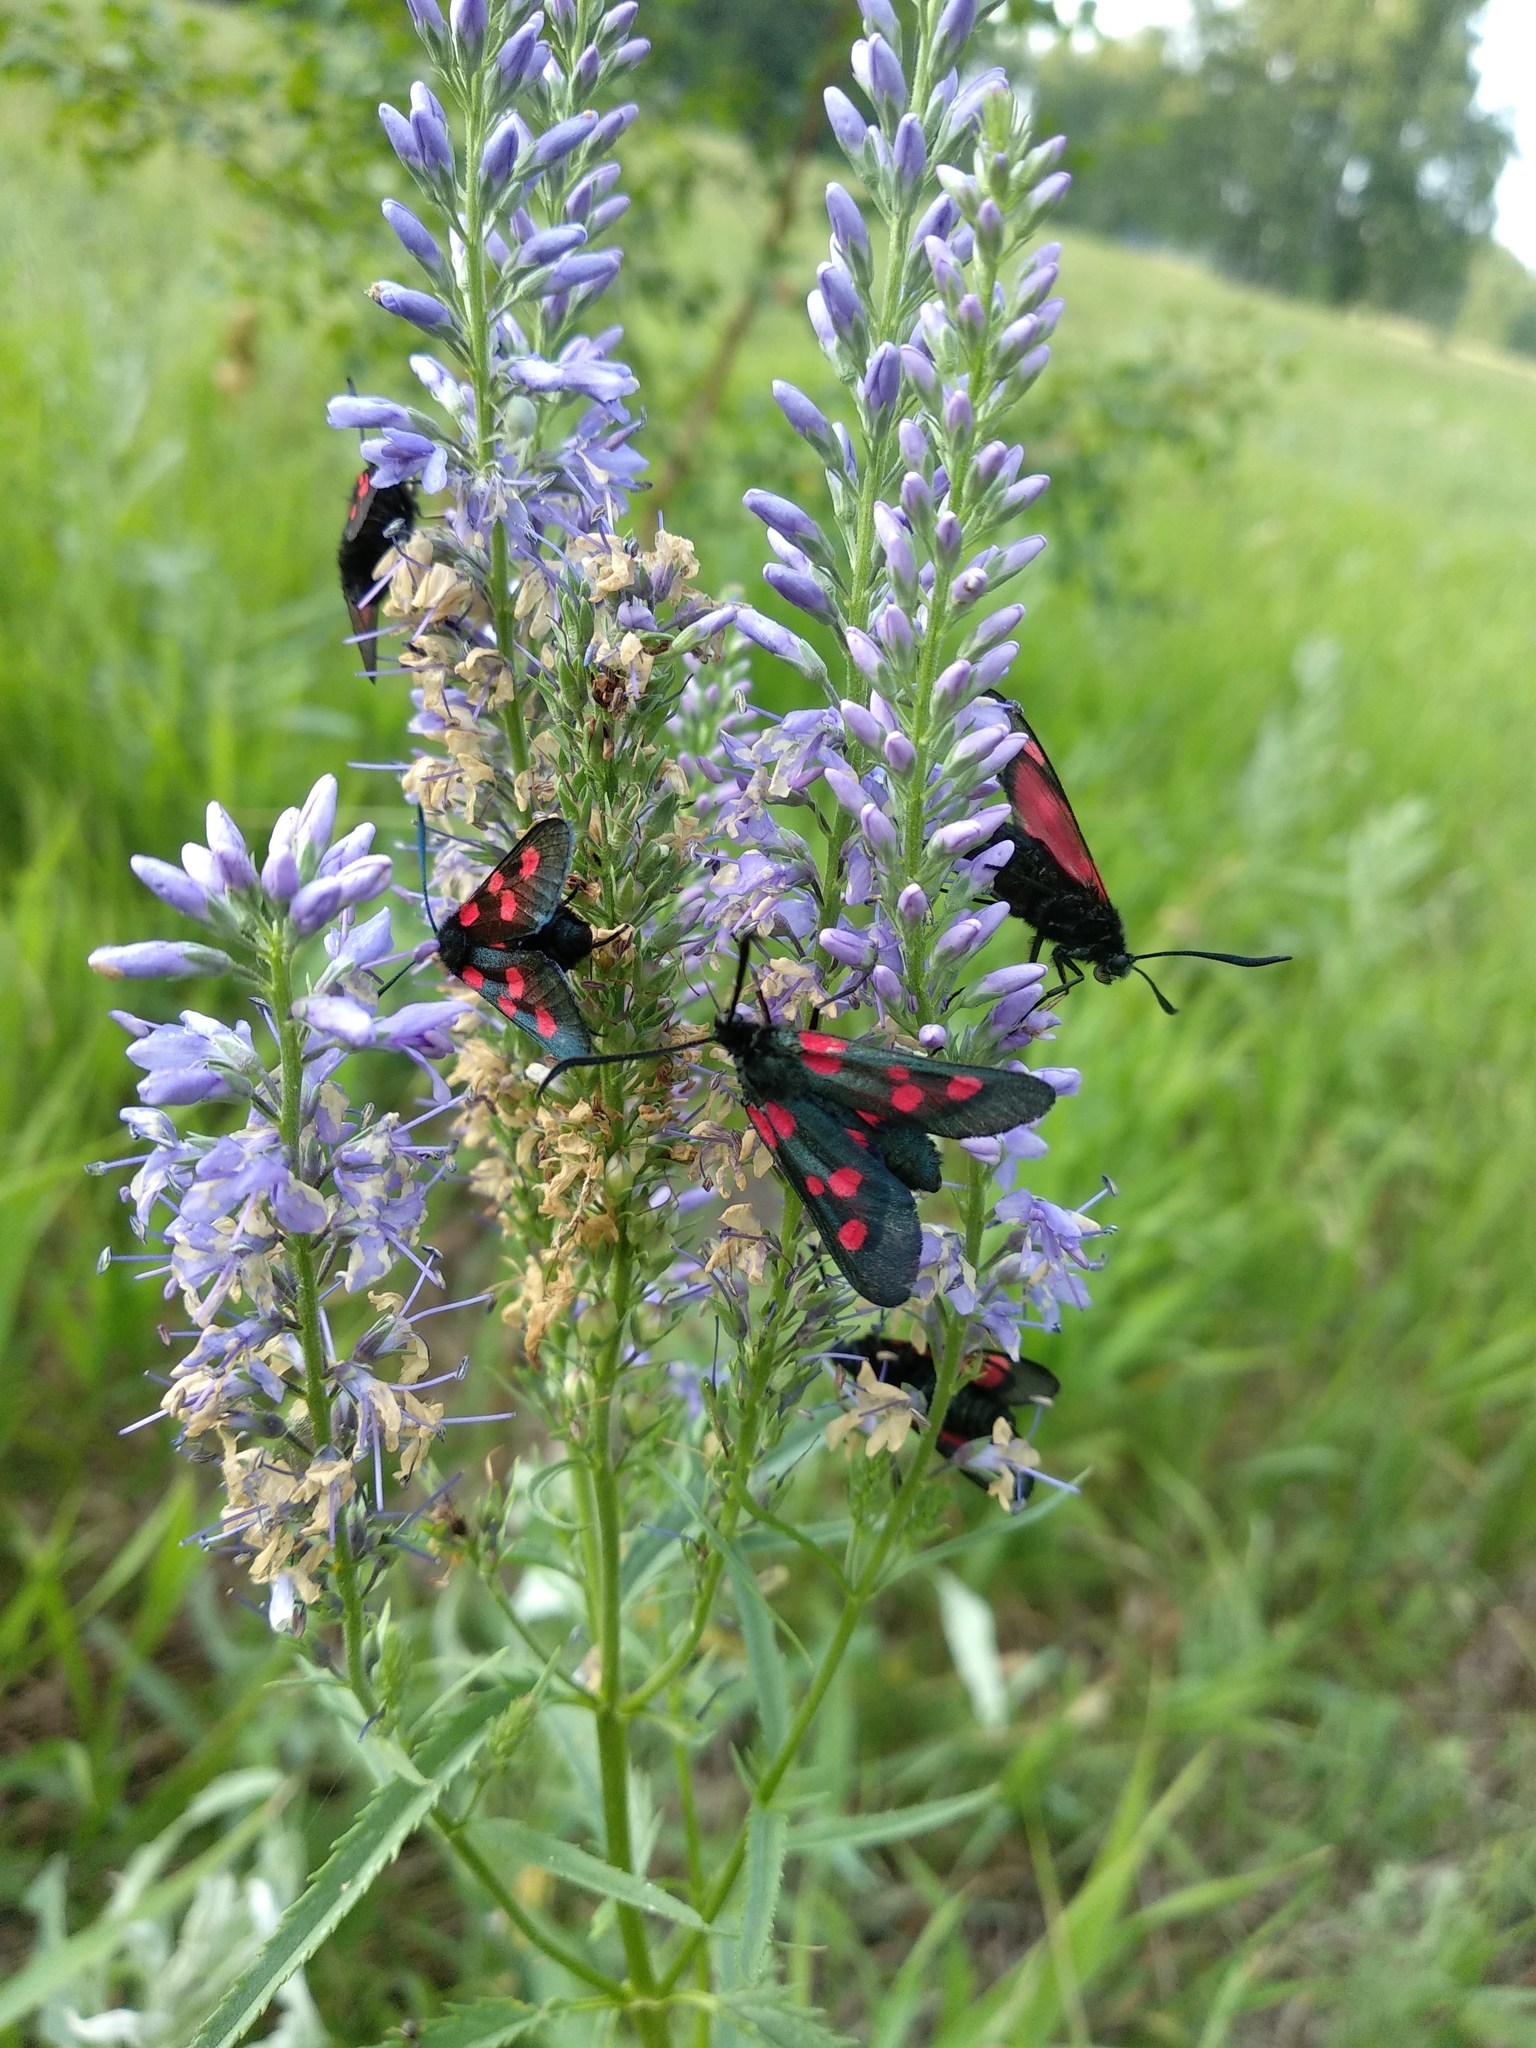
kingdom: Animalia
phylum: Arthropoda
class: Insecta
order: Lepidoptera
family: Zygaenidae
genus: Zygaena
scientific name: Zygaena lonicerae
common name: Narrow-bordered five-spot burnet
